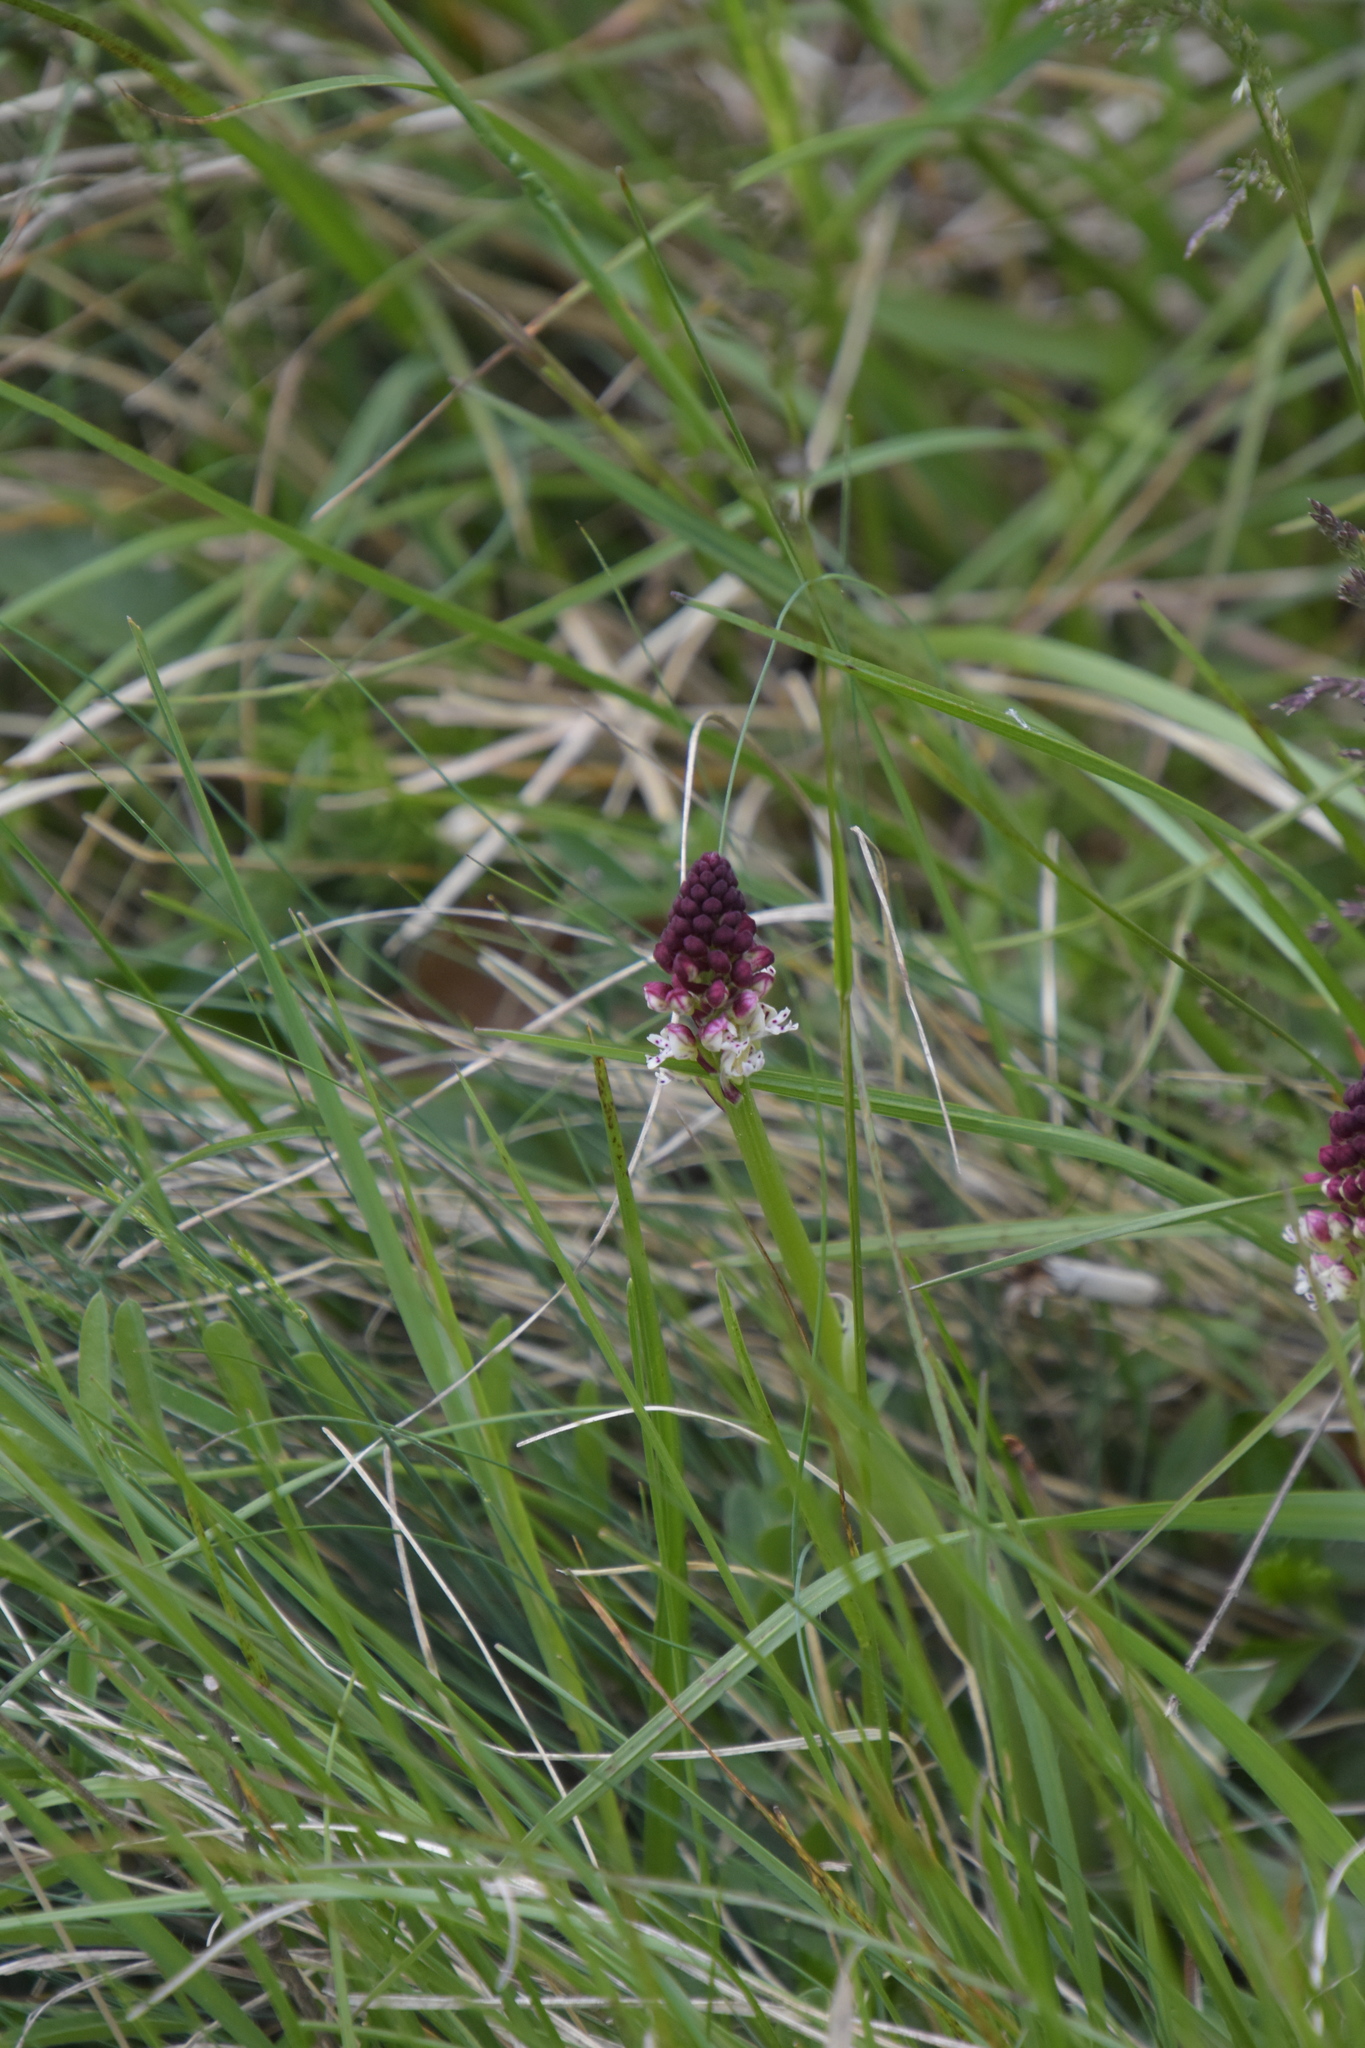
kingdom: Plantae
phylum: Tracheophyta
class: Liliopsida
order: Asparagales
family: Orchidaceae
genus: Neotinea
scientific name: Neotinea ustulata
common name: Burnt orchid
